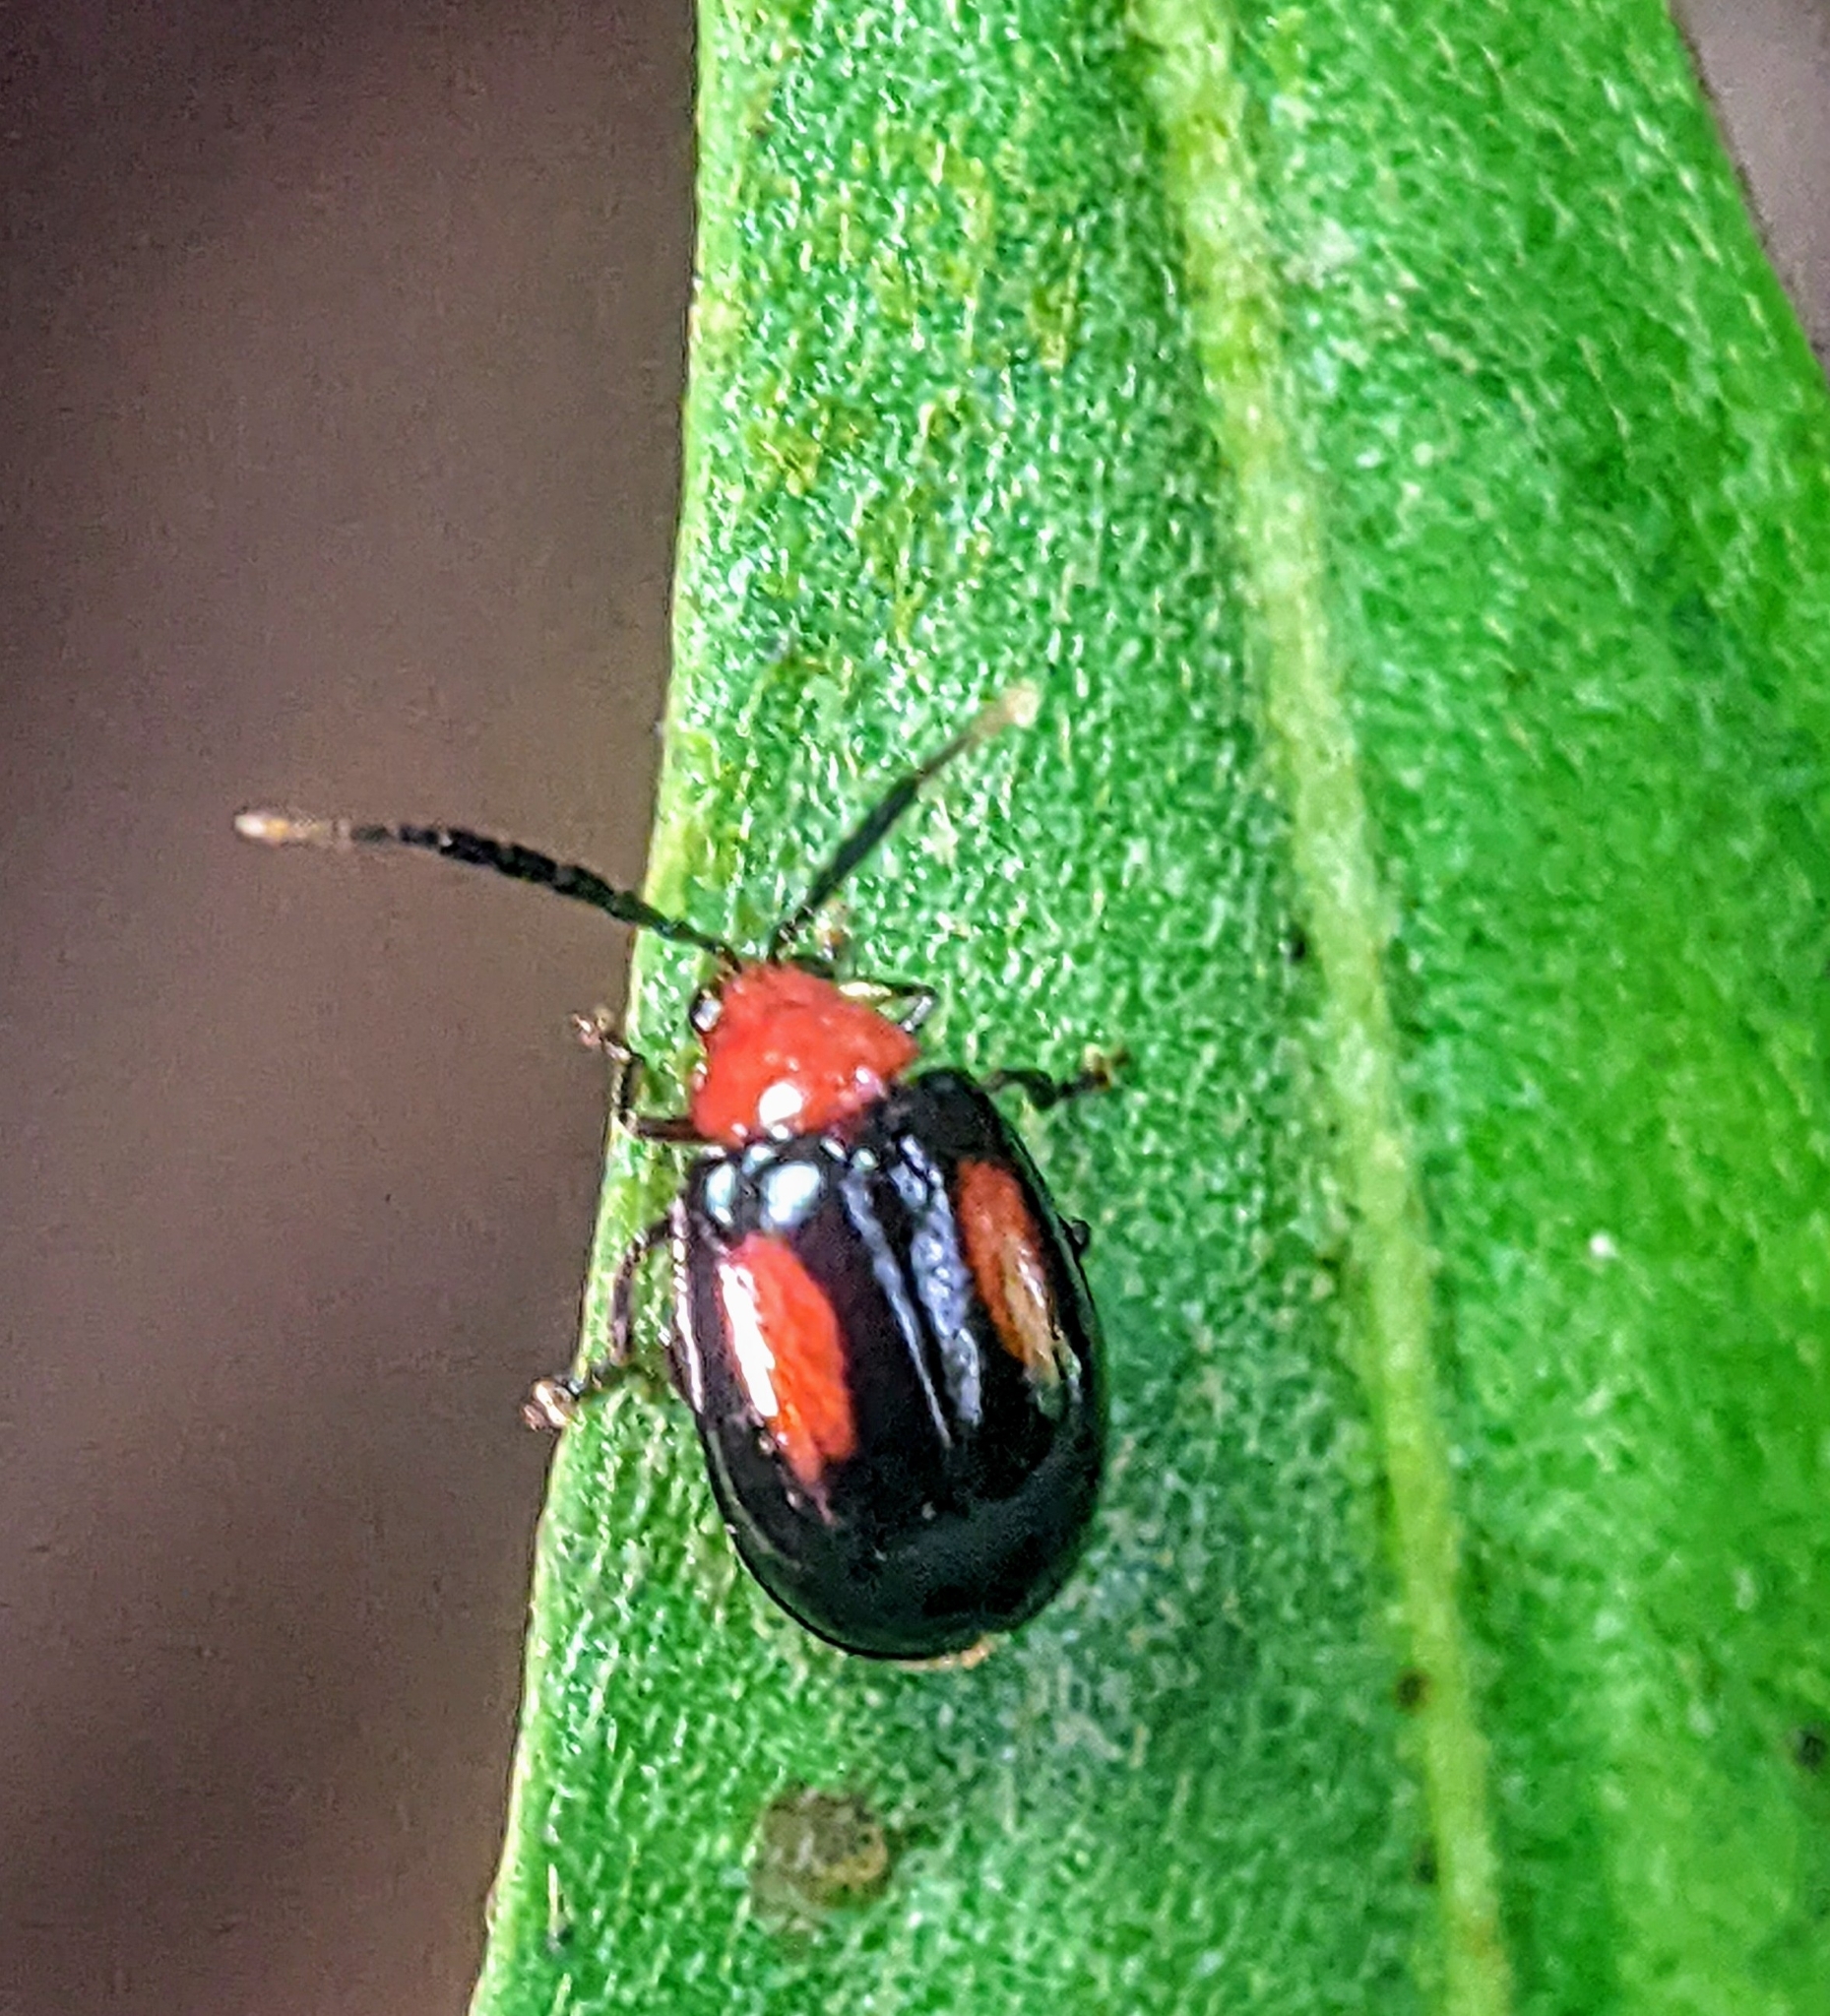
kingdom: Animalia
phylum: Arthropoda
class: Insecta
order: Coleoptera
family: Chrysomelidae
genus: Arcastes
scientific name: Arcastes biplagiata
